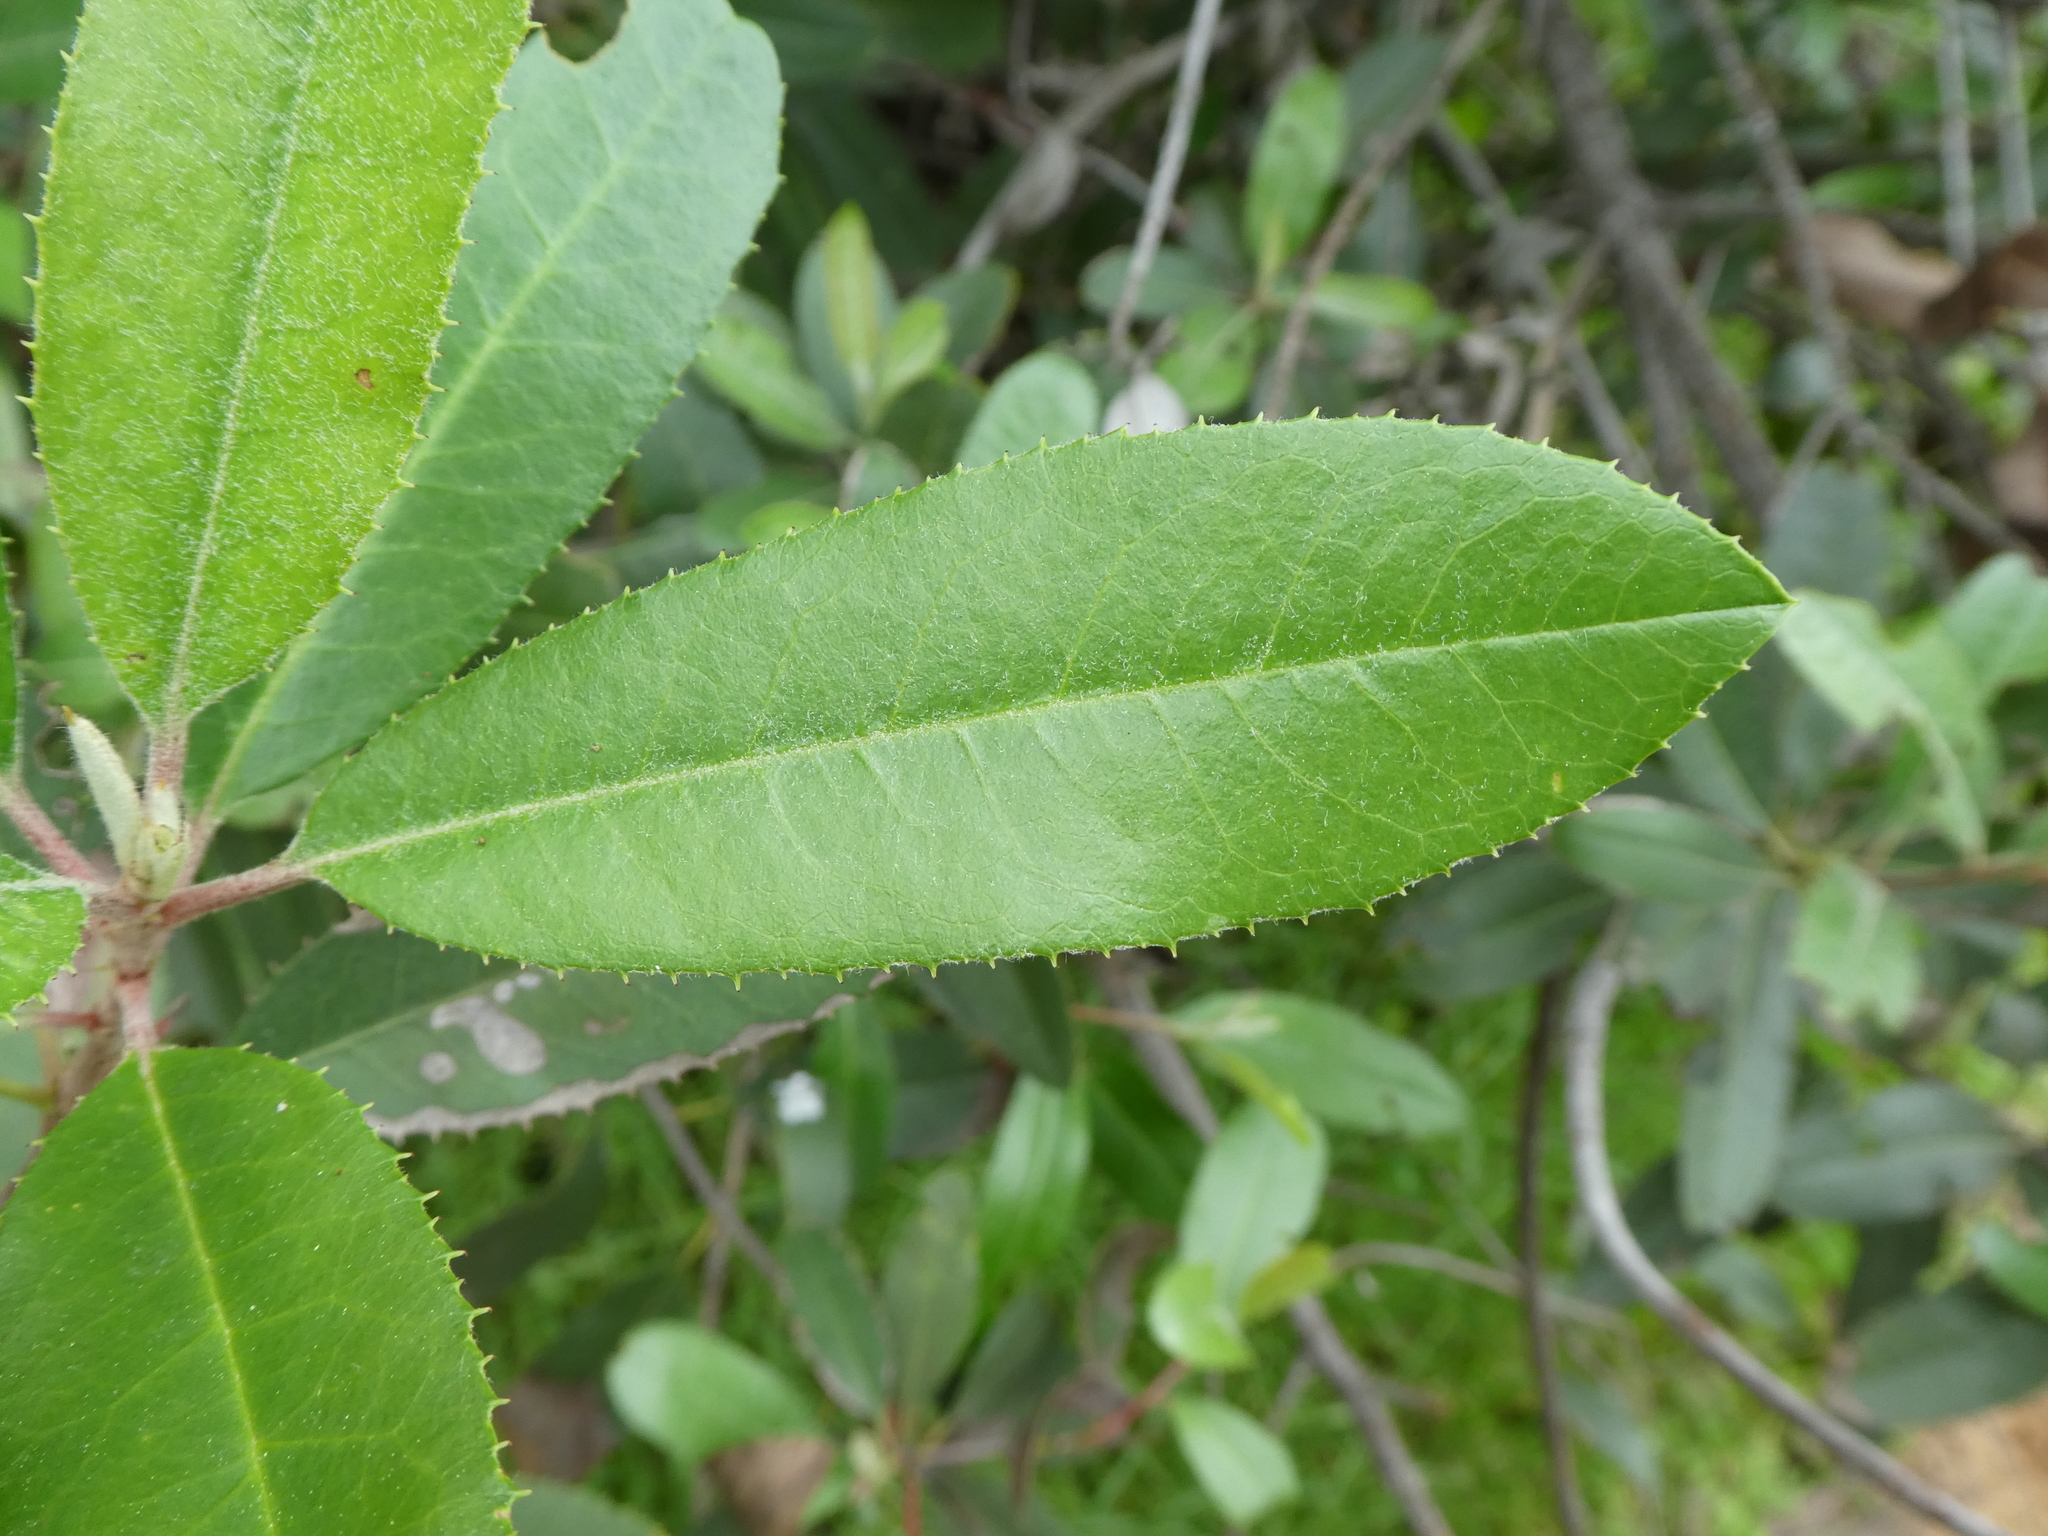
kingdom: Plantae
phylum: Tracheophyta
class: Magnoliopsida
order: Rosales
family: Rosaceae
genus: Heteromeles
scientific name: Heteromeles arbutifolia
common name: California-holly
